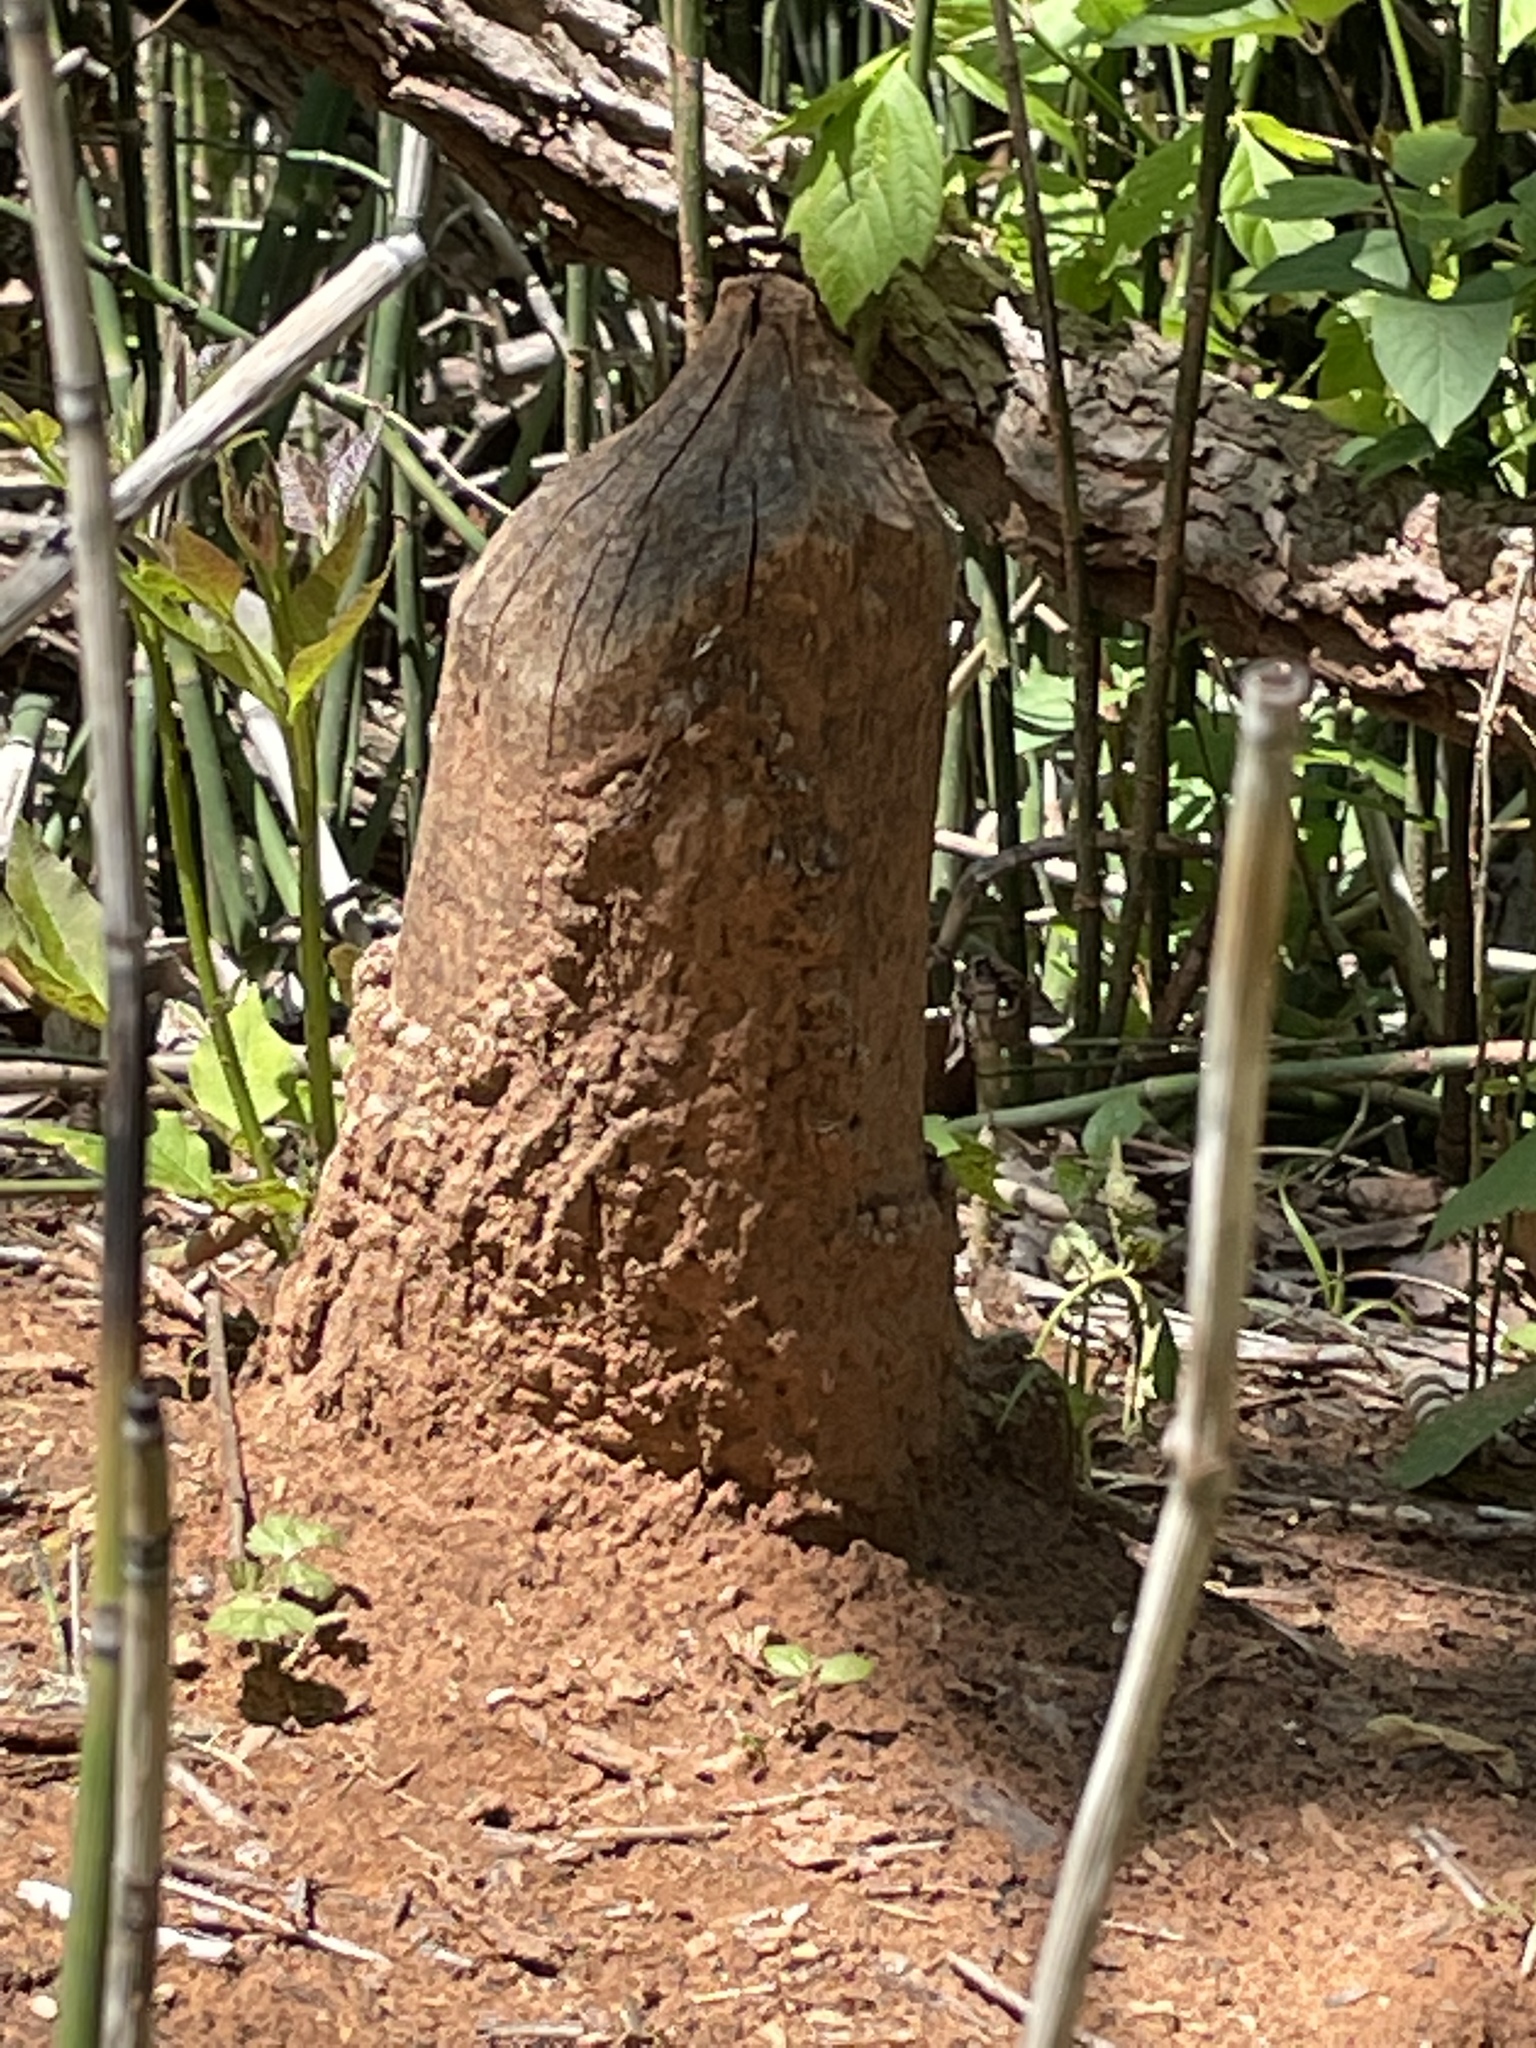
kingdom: Animalia
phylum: Chordata
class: Mammalia
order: Rodentia
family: Castoridae
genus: Castor
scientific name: Castor canadensis
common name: American beaver
